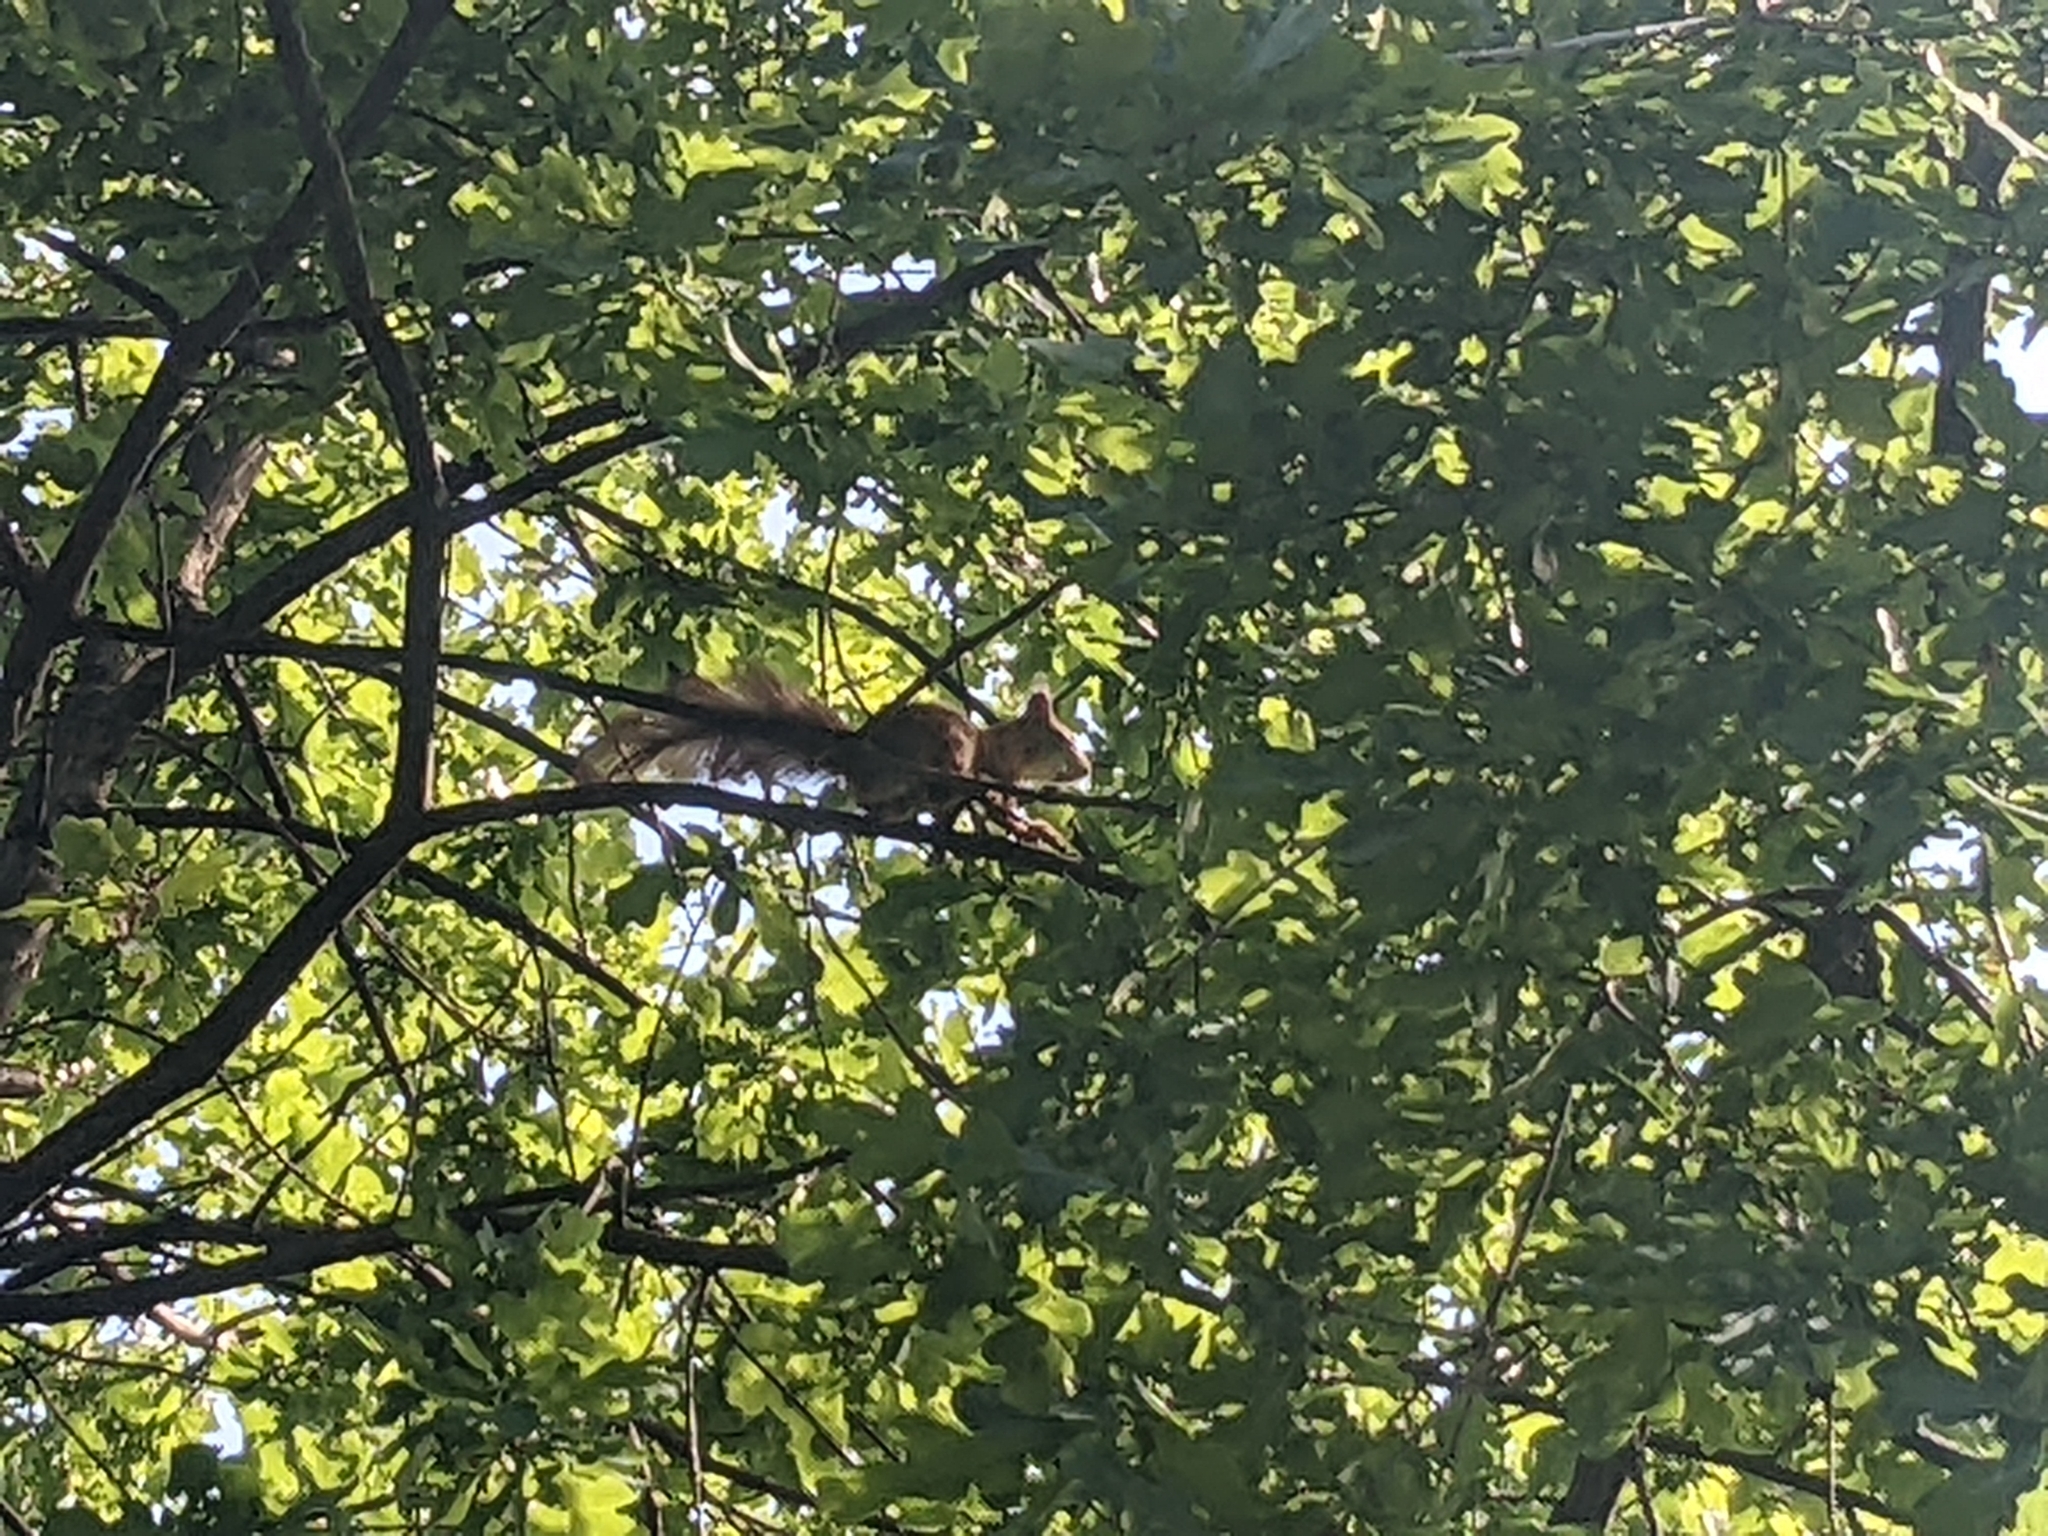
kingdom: Animalia
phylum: Chordata
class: Mammalia
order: Rodentia
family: Sciuridae
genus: Sciurus
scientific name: Sciurus vulgaris
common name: Eurasian red squirrel
